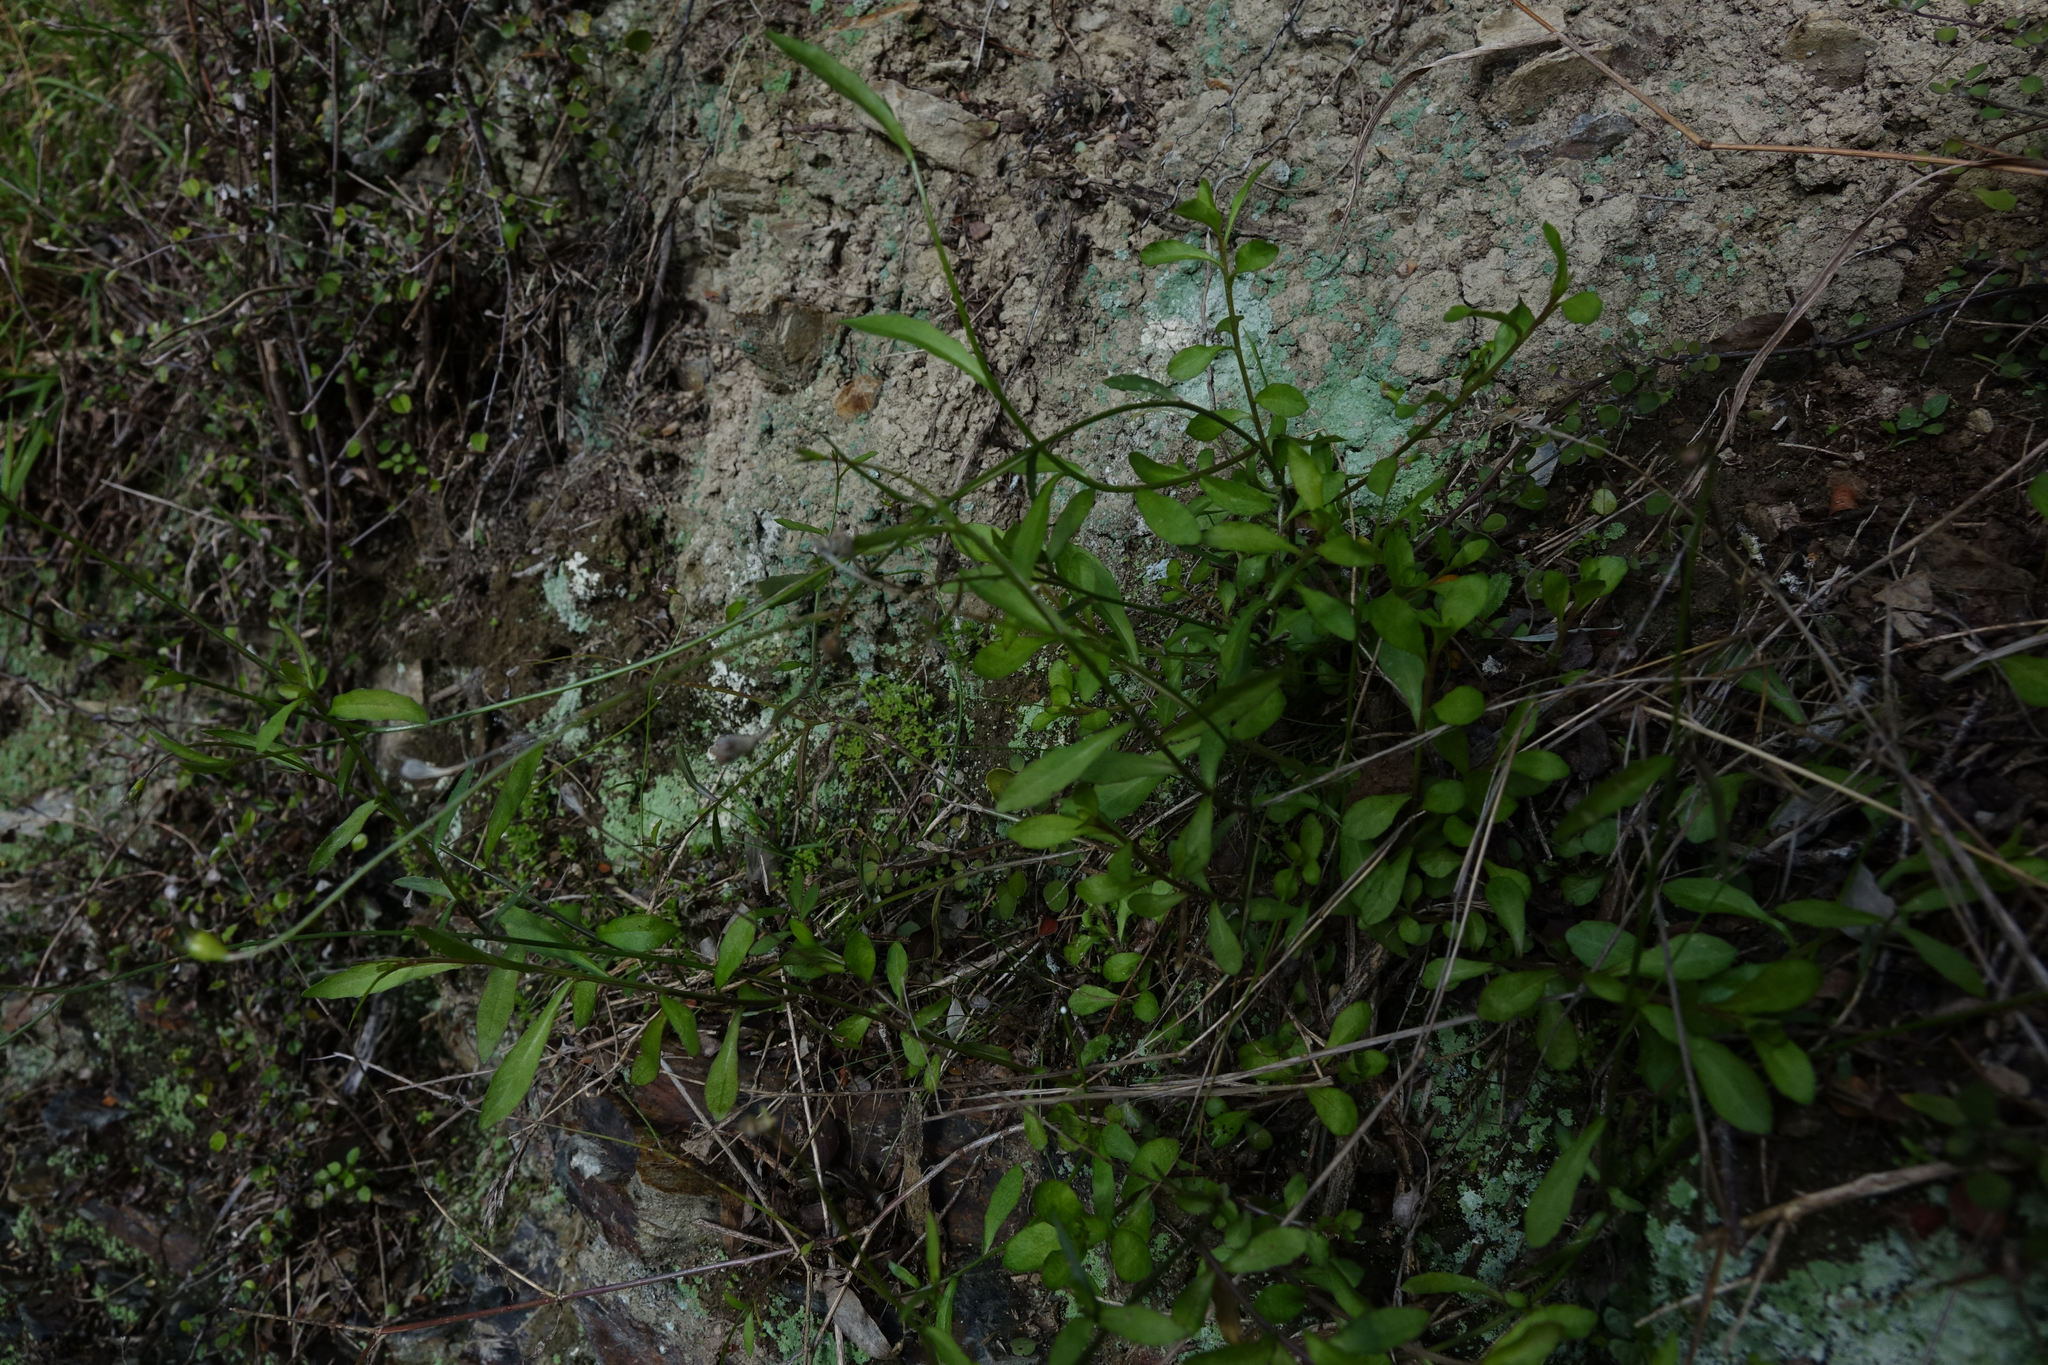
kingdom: Plantae
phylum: Tracheophyta
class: Magnoliopsida
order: Asterales
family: Campanulaceae
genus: Wahlenbergia
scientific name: Wahlenbergia rupestris
